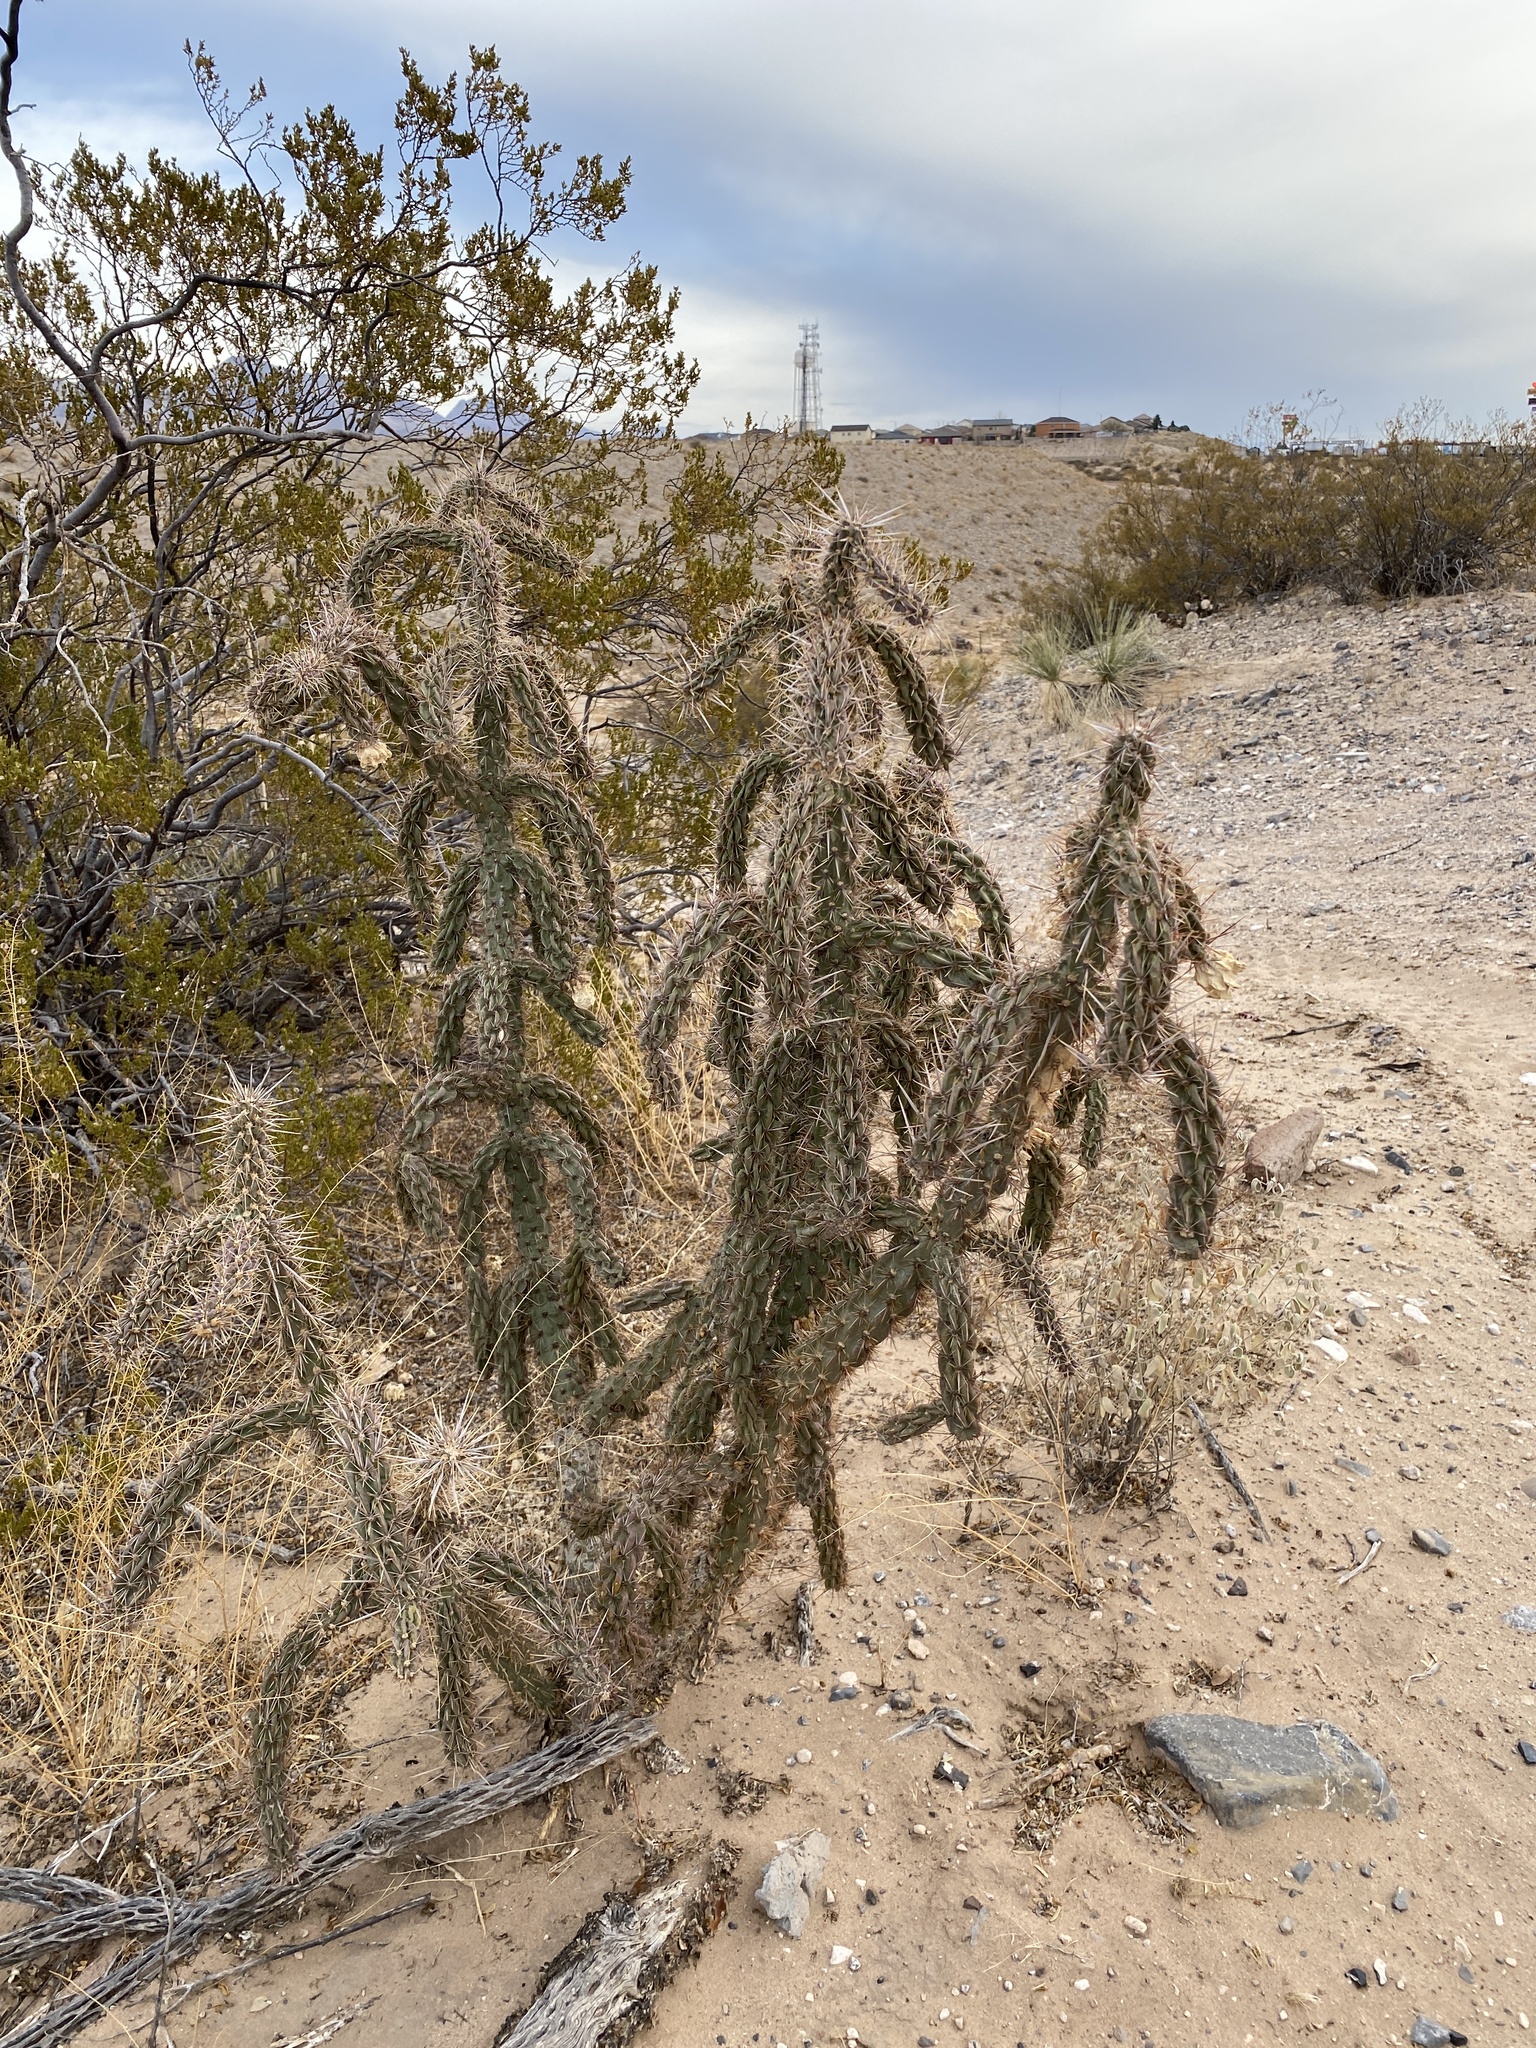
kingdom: Plantae
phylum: Tracheophyta
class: Magnoliopsida
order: Caryophyllales
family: Cactaceae
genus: Cylindropuntia
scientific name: Cylindropuntia imbricata
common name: Candelabrum cactus
